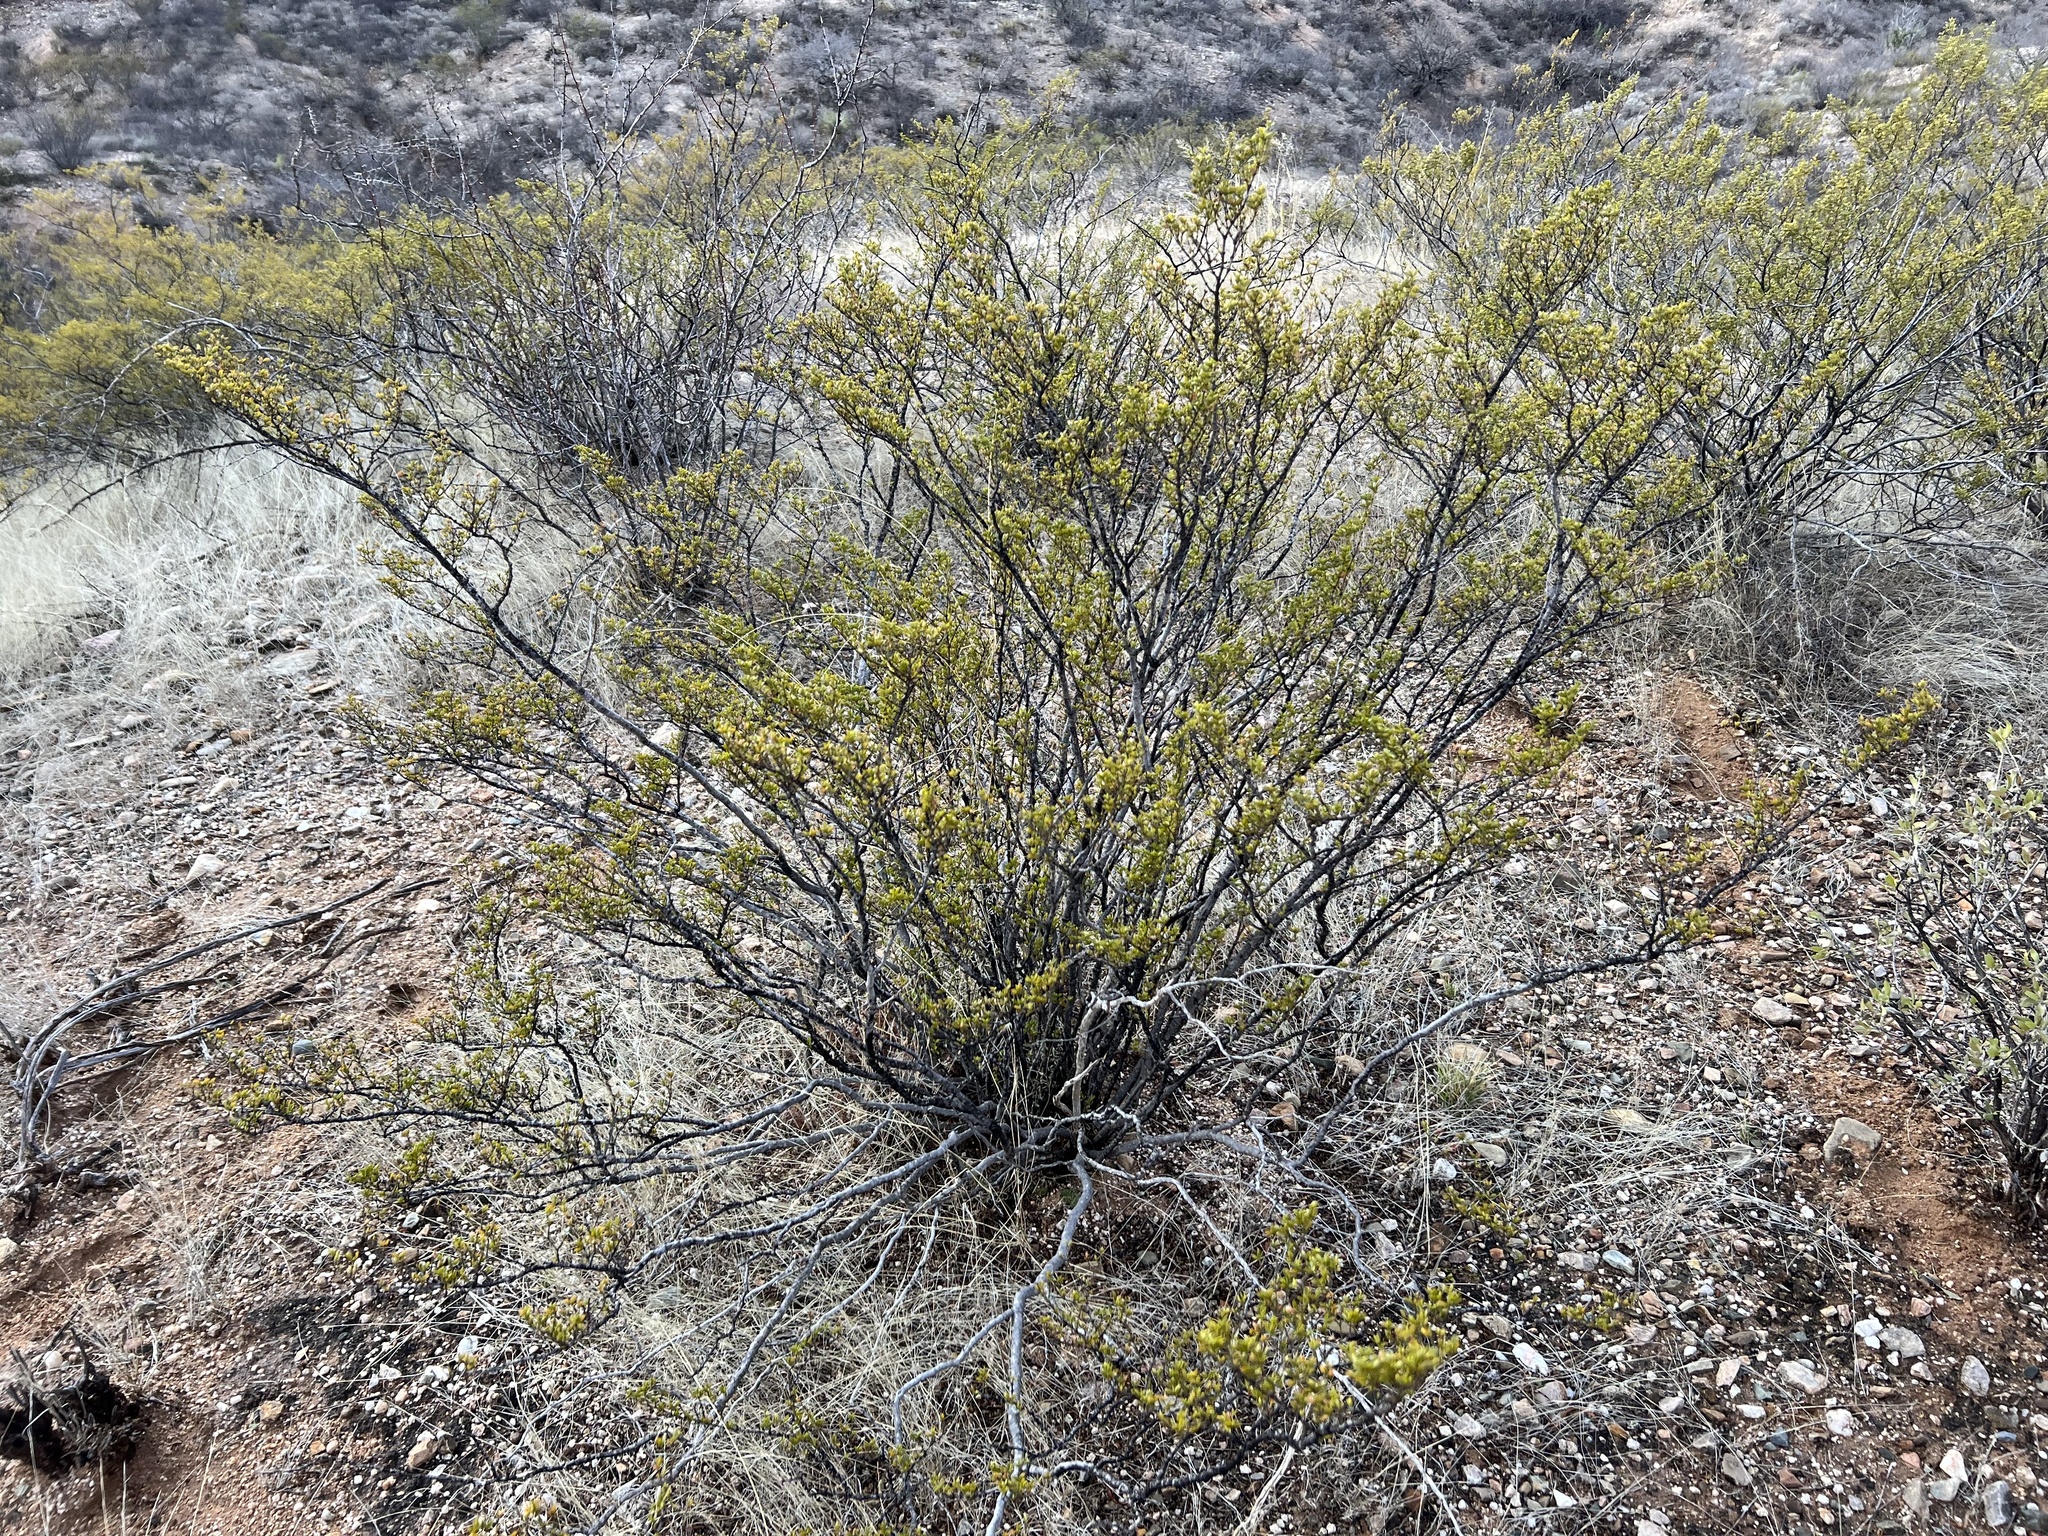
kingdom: Plantae
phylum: Tracheophyta
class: Magnoliopsida
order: Zygophyllales
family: Zygophyllaceae
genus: Larrea
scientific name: Larrea tridentata
